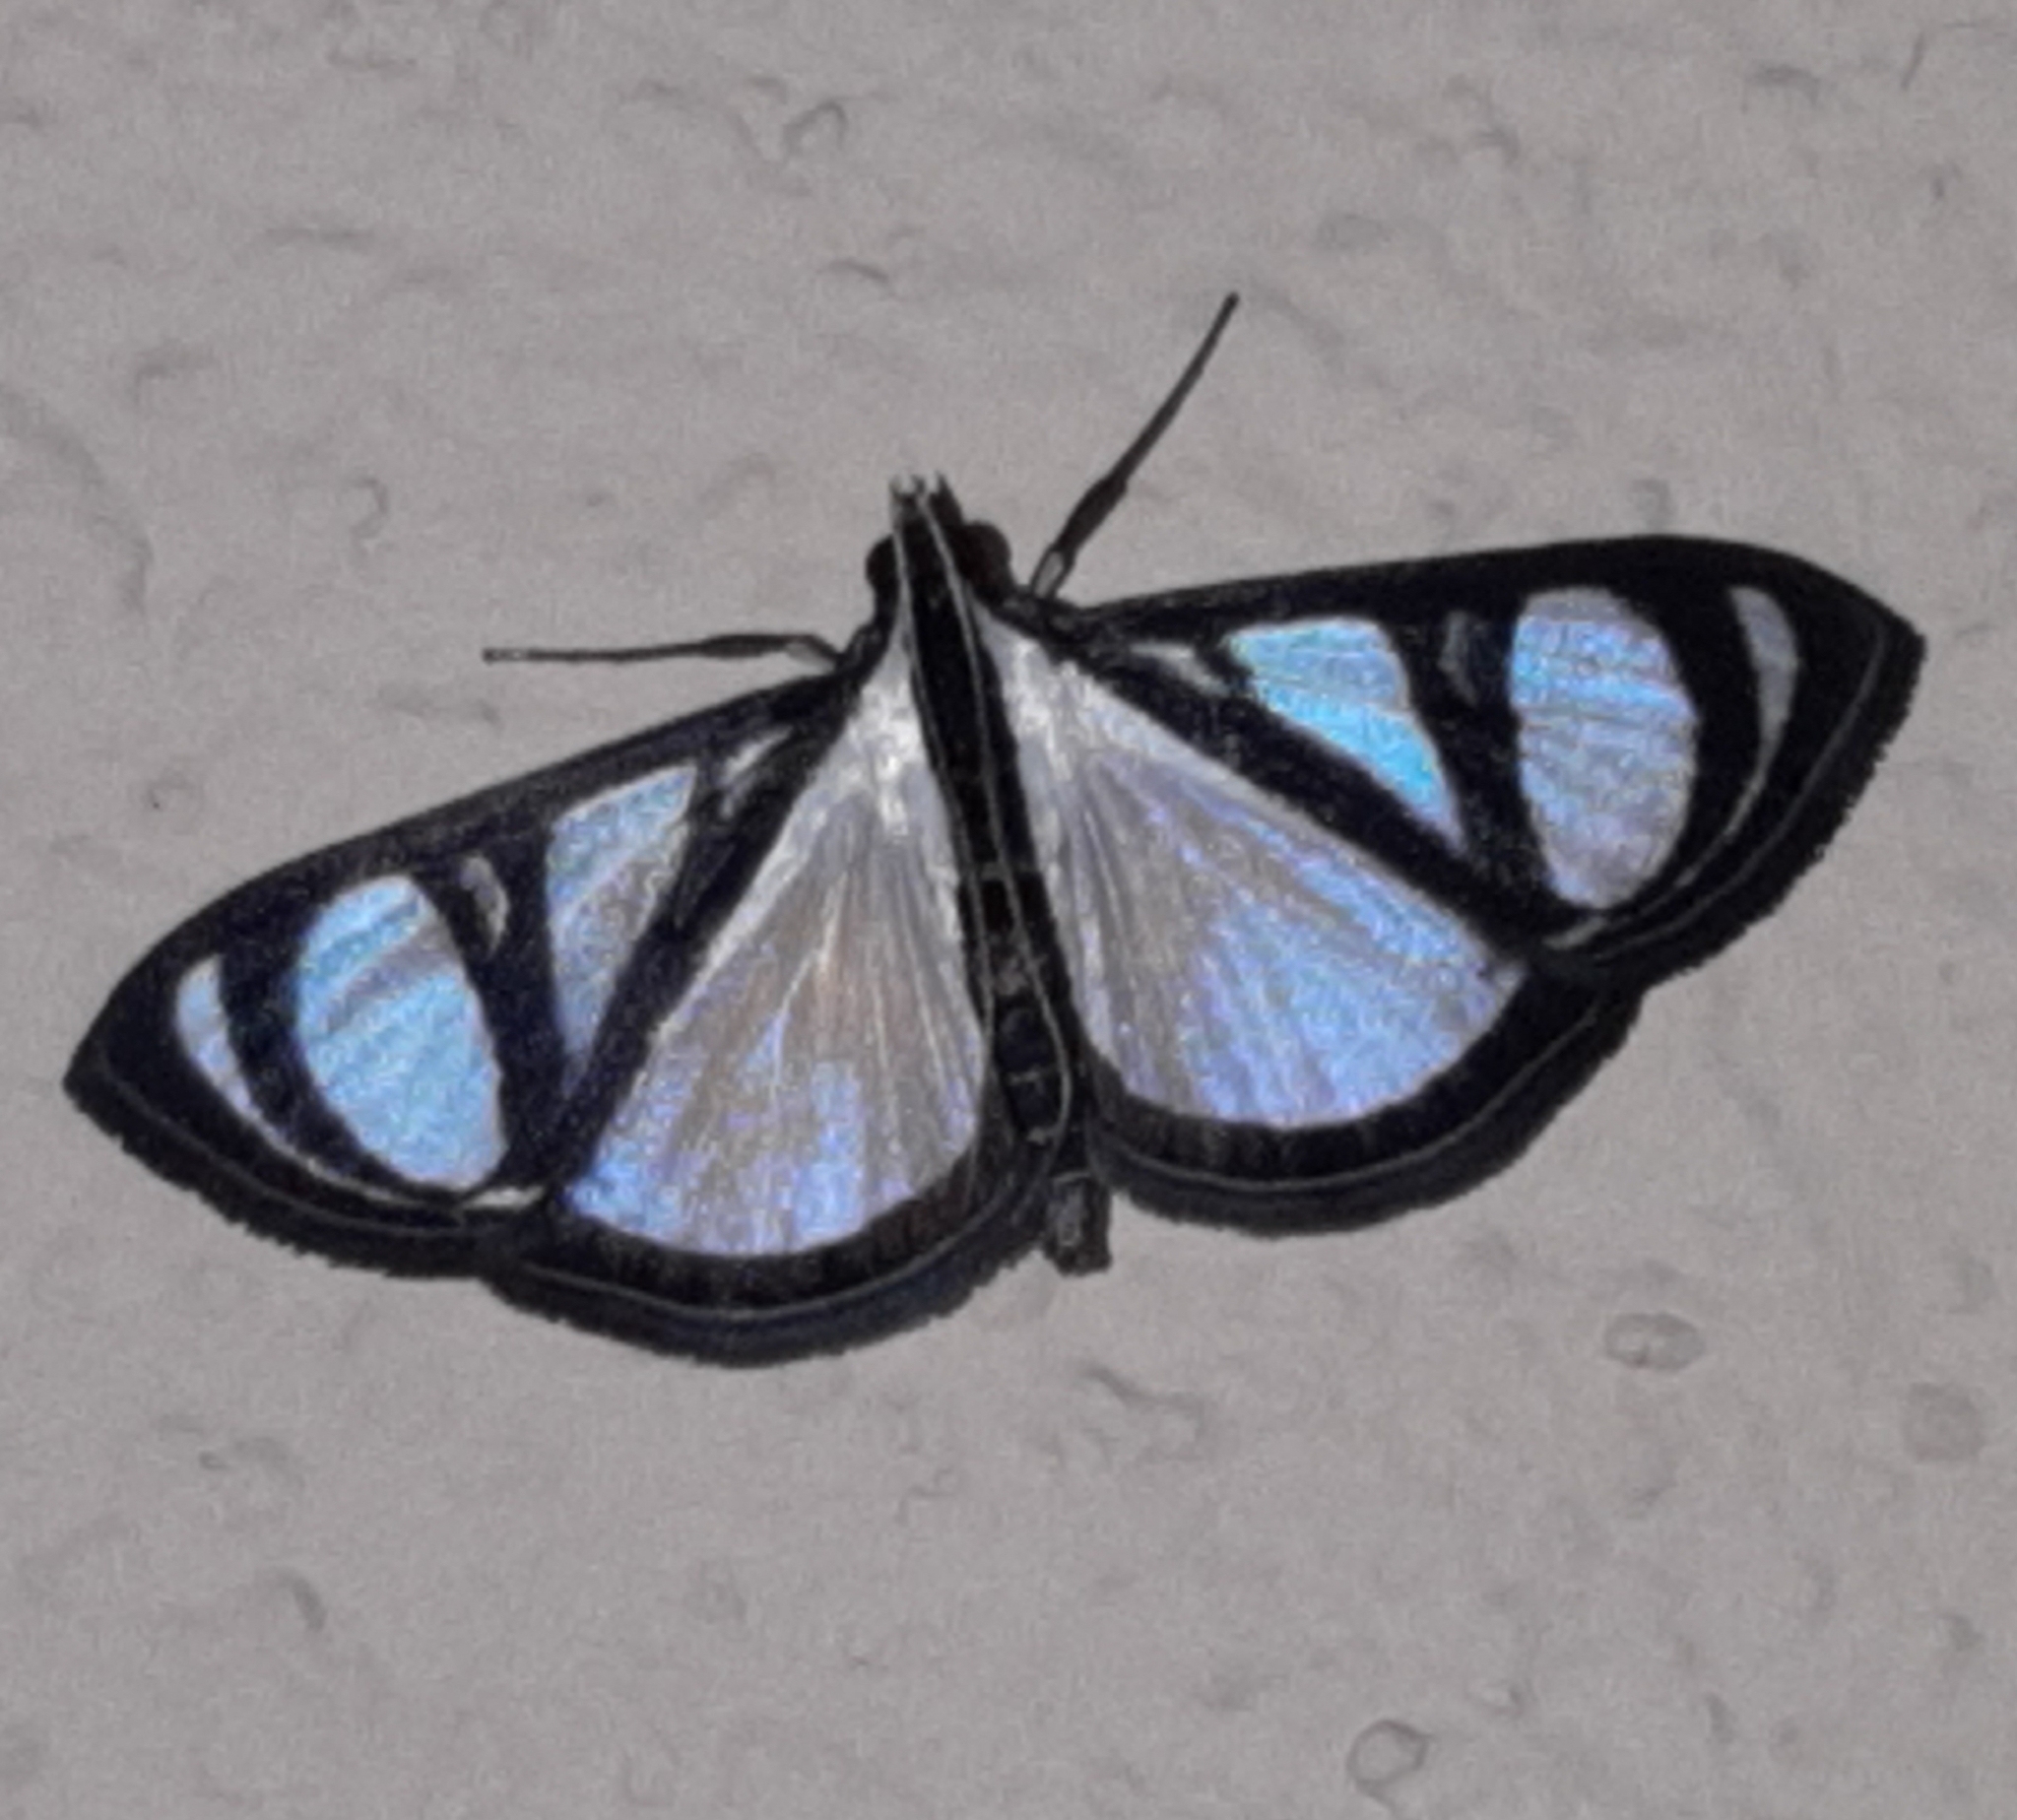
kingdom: Animalia
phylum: Arthropoda
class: Insecta
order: Lepidoptera
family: Crambidae
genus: Glyphodes
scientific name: Glyphodes confinis
